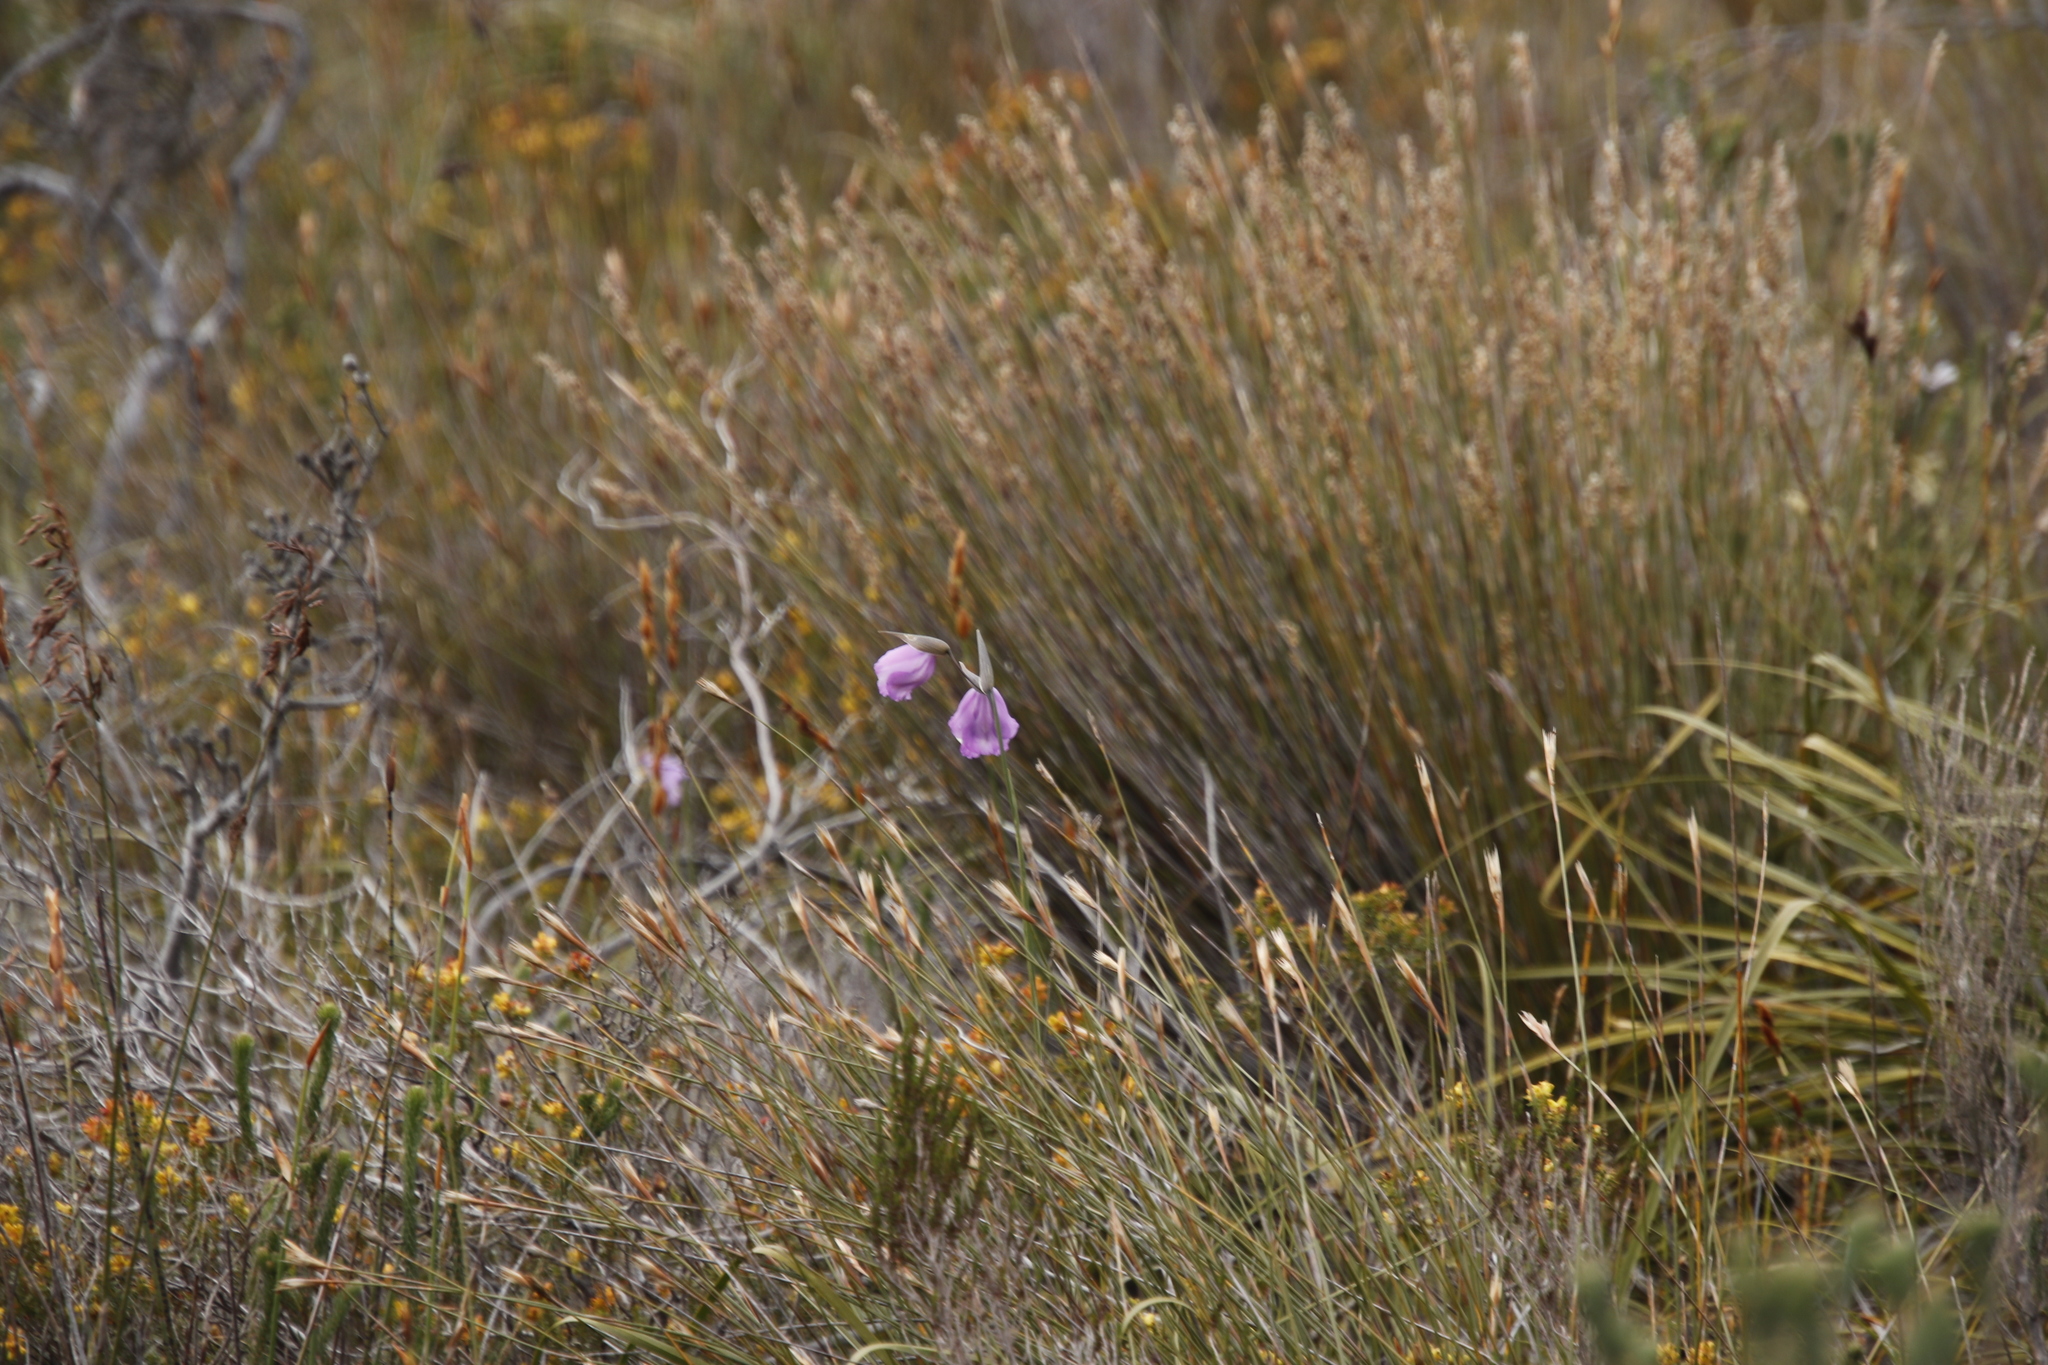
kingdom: Plantae
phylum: Tracheophyta
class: Liliopsida
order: Asparagales
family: Iridaceae
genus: Gladiolus
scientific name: Gladiolus bullatus
